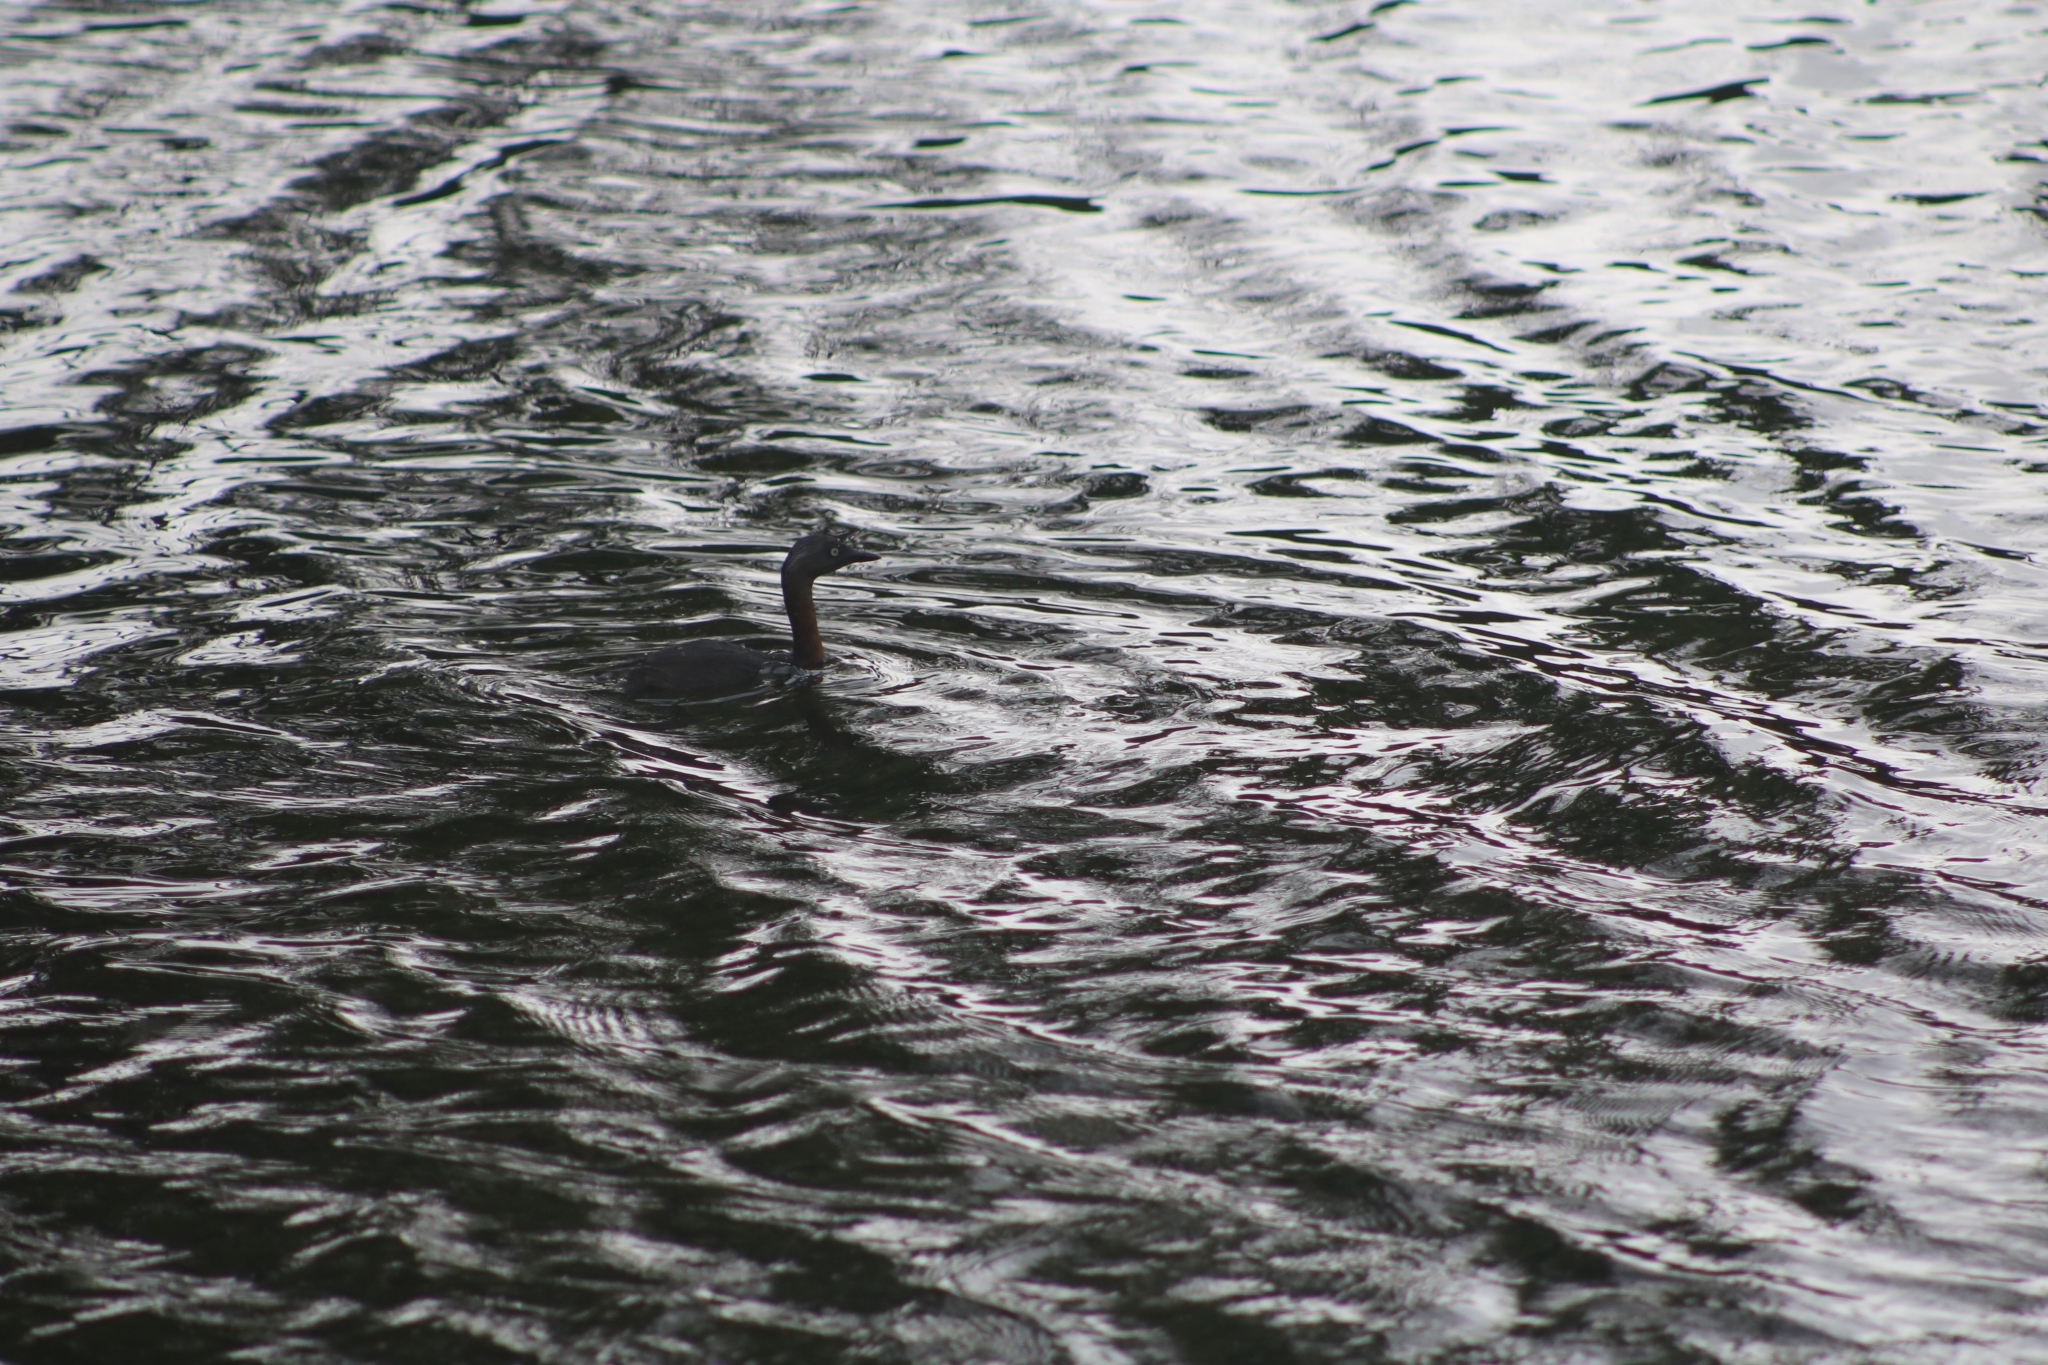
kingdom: Animalia
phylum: Chordata
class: Aves
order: Podicipediformes
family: Podicipedidae
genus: Poliocephalus
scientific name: Poliocephalus rufopectus
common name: New zealand grebe
